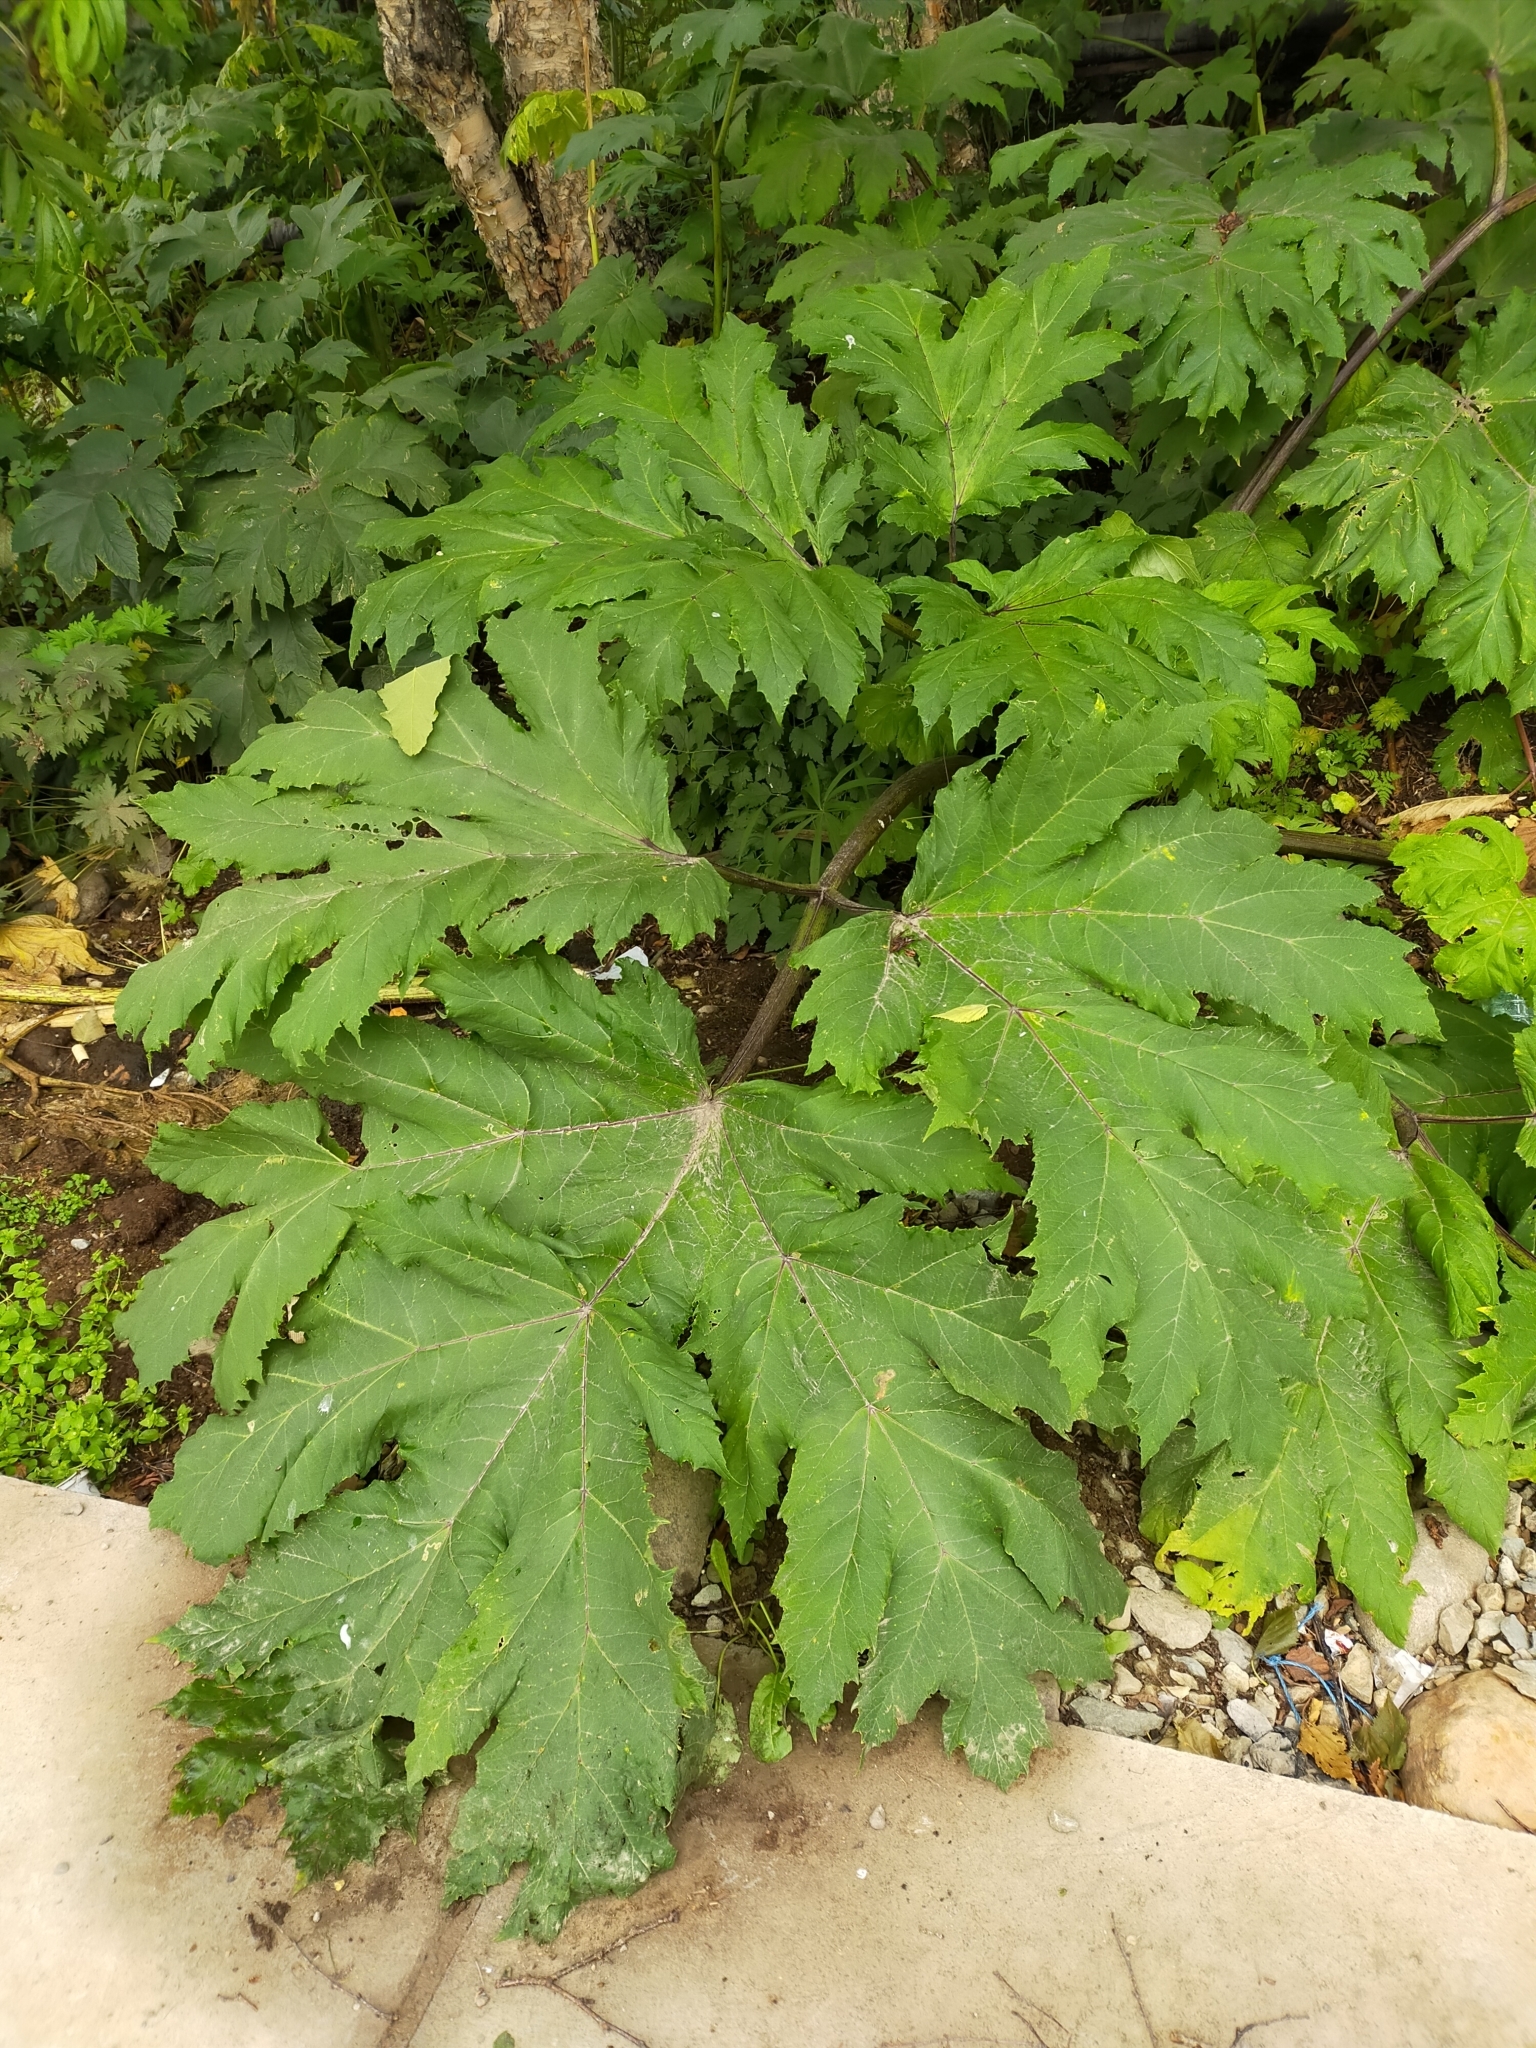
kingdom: Plantae
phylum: Tracheophyta
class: Magnoliopsida
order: Apiales
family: Apiaceae
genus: Heracleum
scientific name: Heracleum sosnowskyi
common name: Sosnowsky's hogweed
